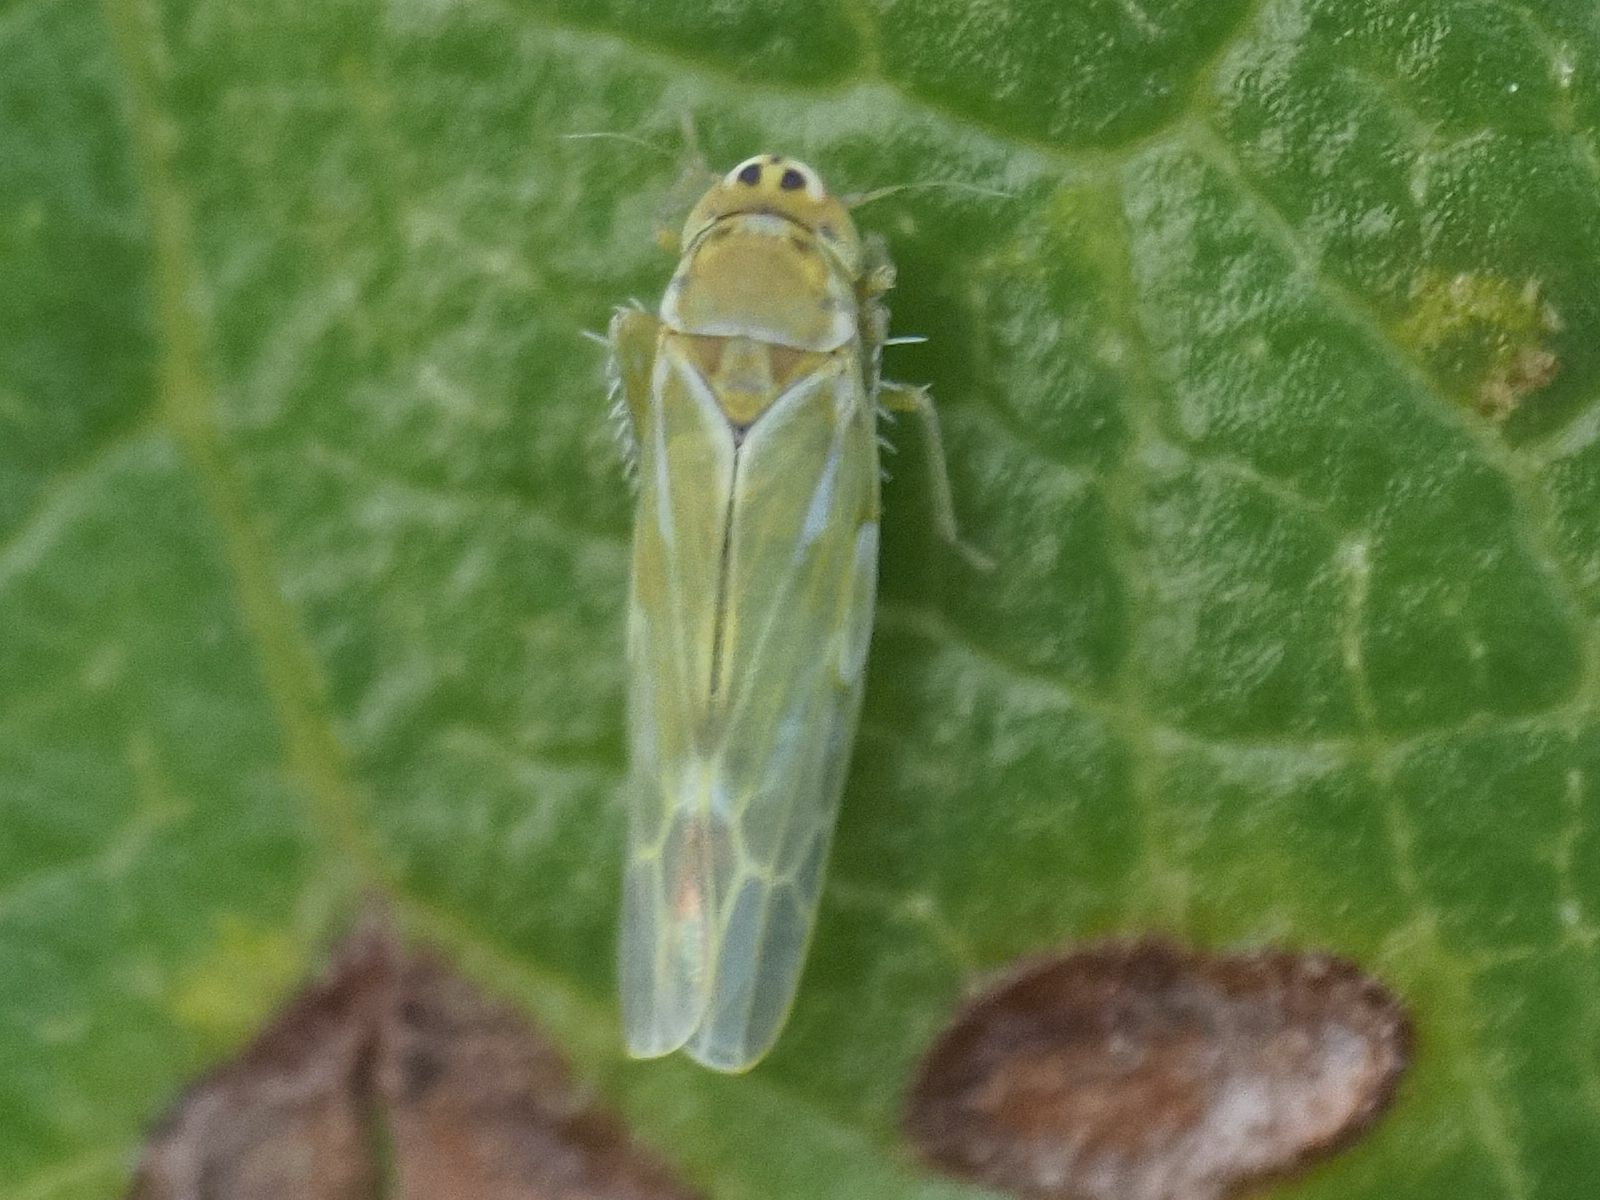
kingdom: Animalia
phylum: Arthropoda
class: Insecta
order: Hemiptera
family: Cicadellidae
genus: Frutioidia
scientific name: Frutioidia bisignata
